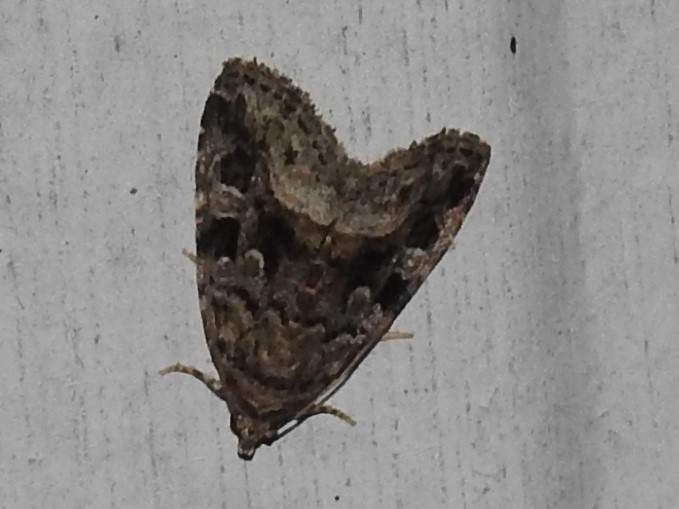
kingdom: Animalia
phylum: Arthropoda
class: Insecta
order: Lepidoptera
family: Noctuidae
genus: Protodeltote
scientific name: Protodeltote muscosula
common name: Large mossy glyph
